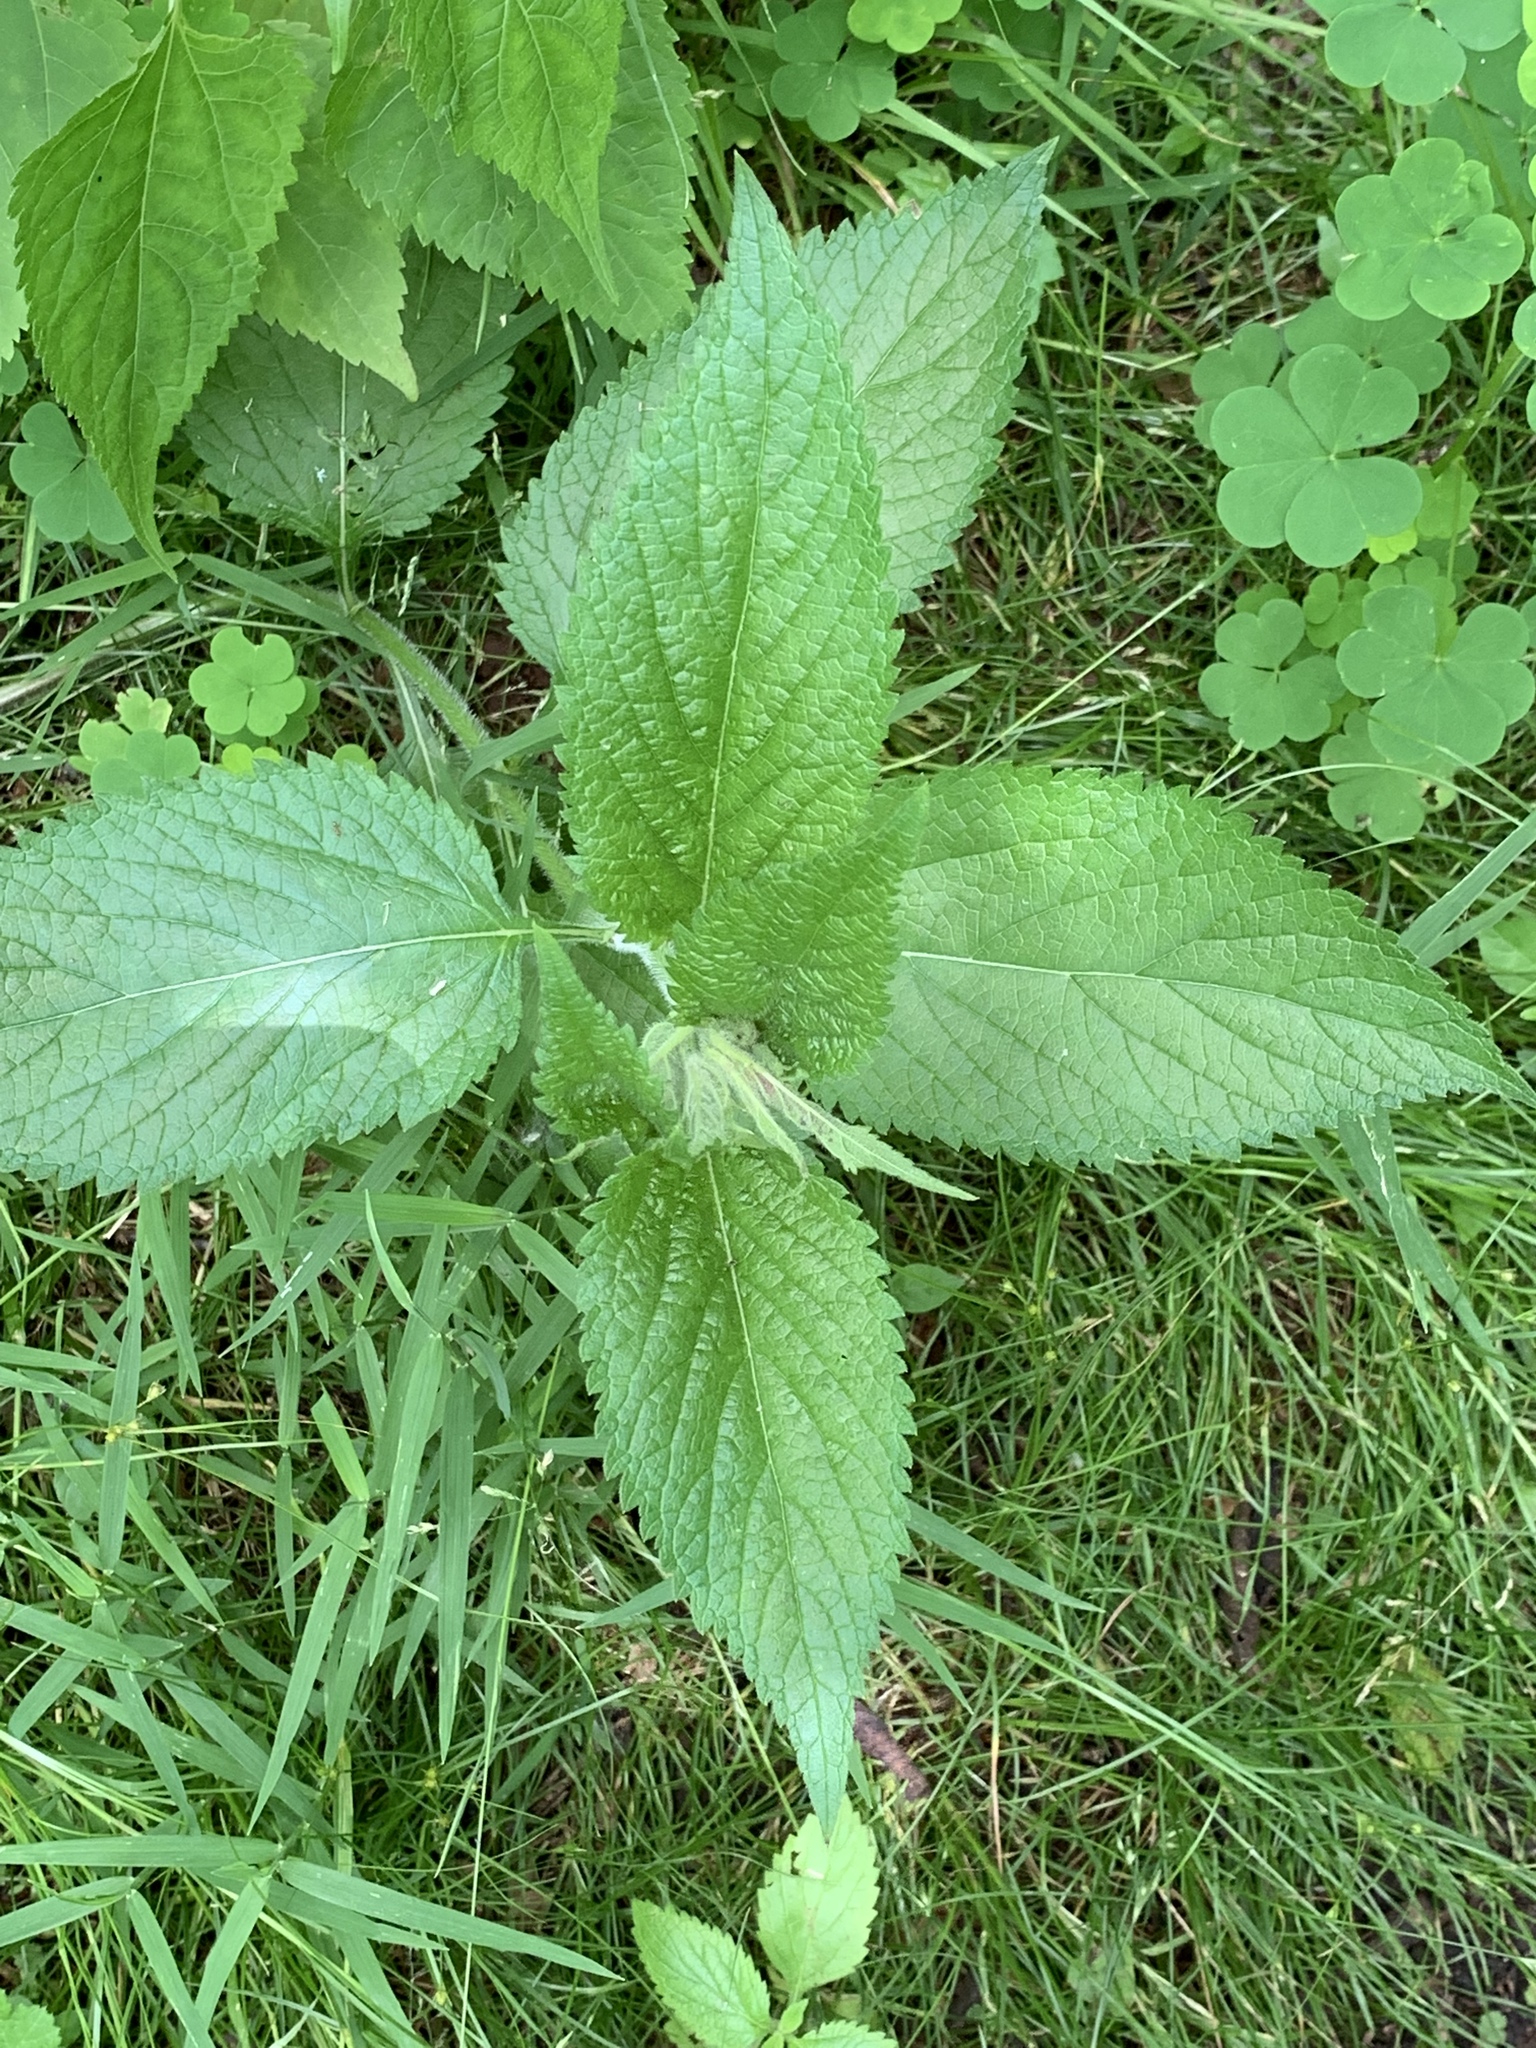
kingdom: Plantae
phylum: Tracheophyta
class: Magnoliopsida
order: Lamiales
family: Verbenaceae
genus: Verbena
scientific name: Verbena urticifolia
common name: Nettle-leaved vervain
